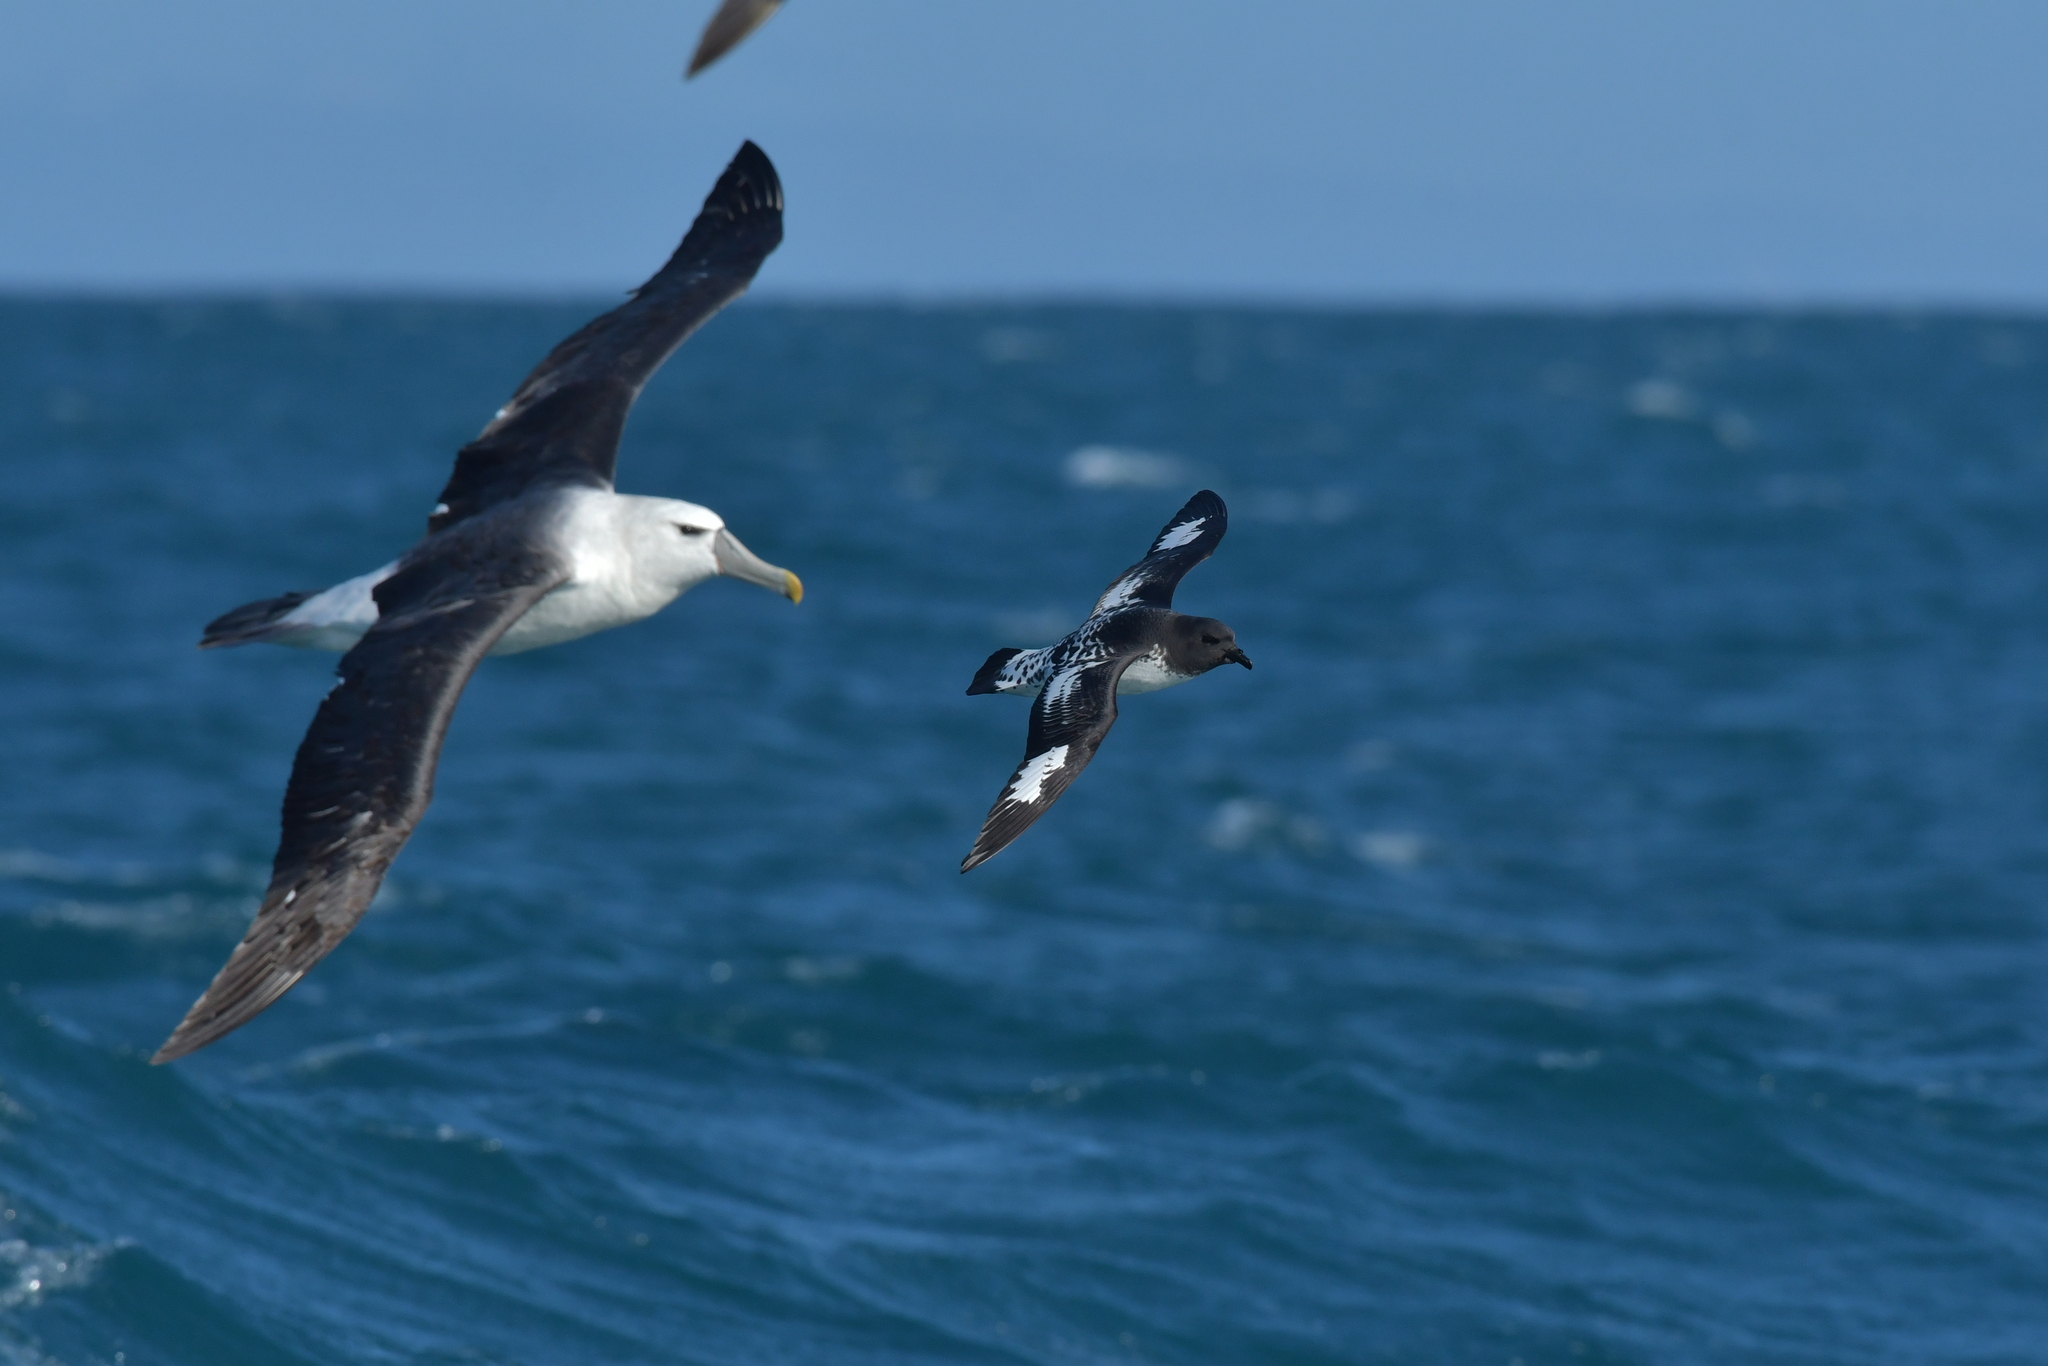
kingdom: Animalia
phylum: Chordata
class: Aves
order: Procellariiformes
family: Procellariidae
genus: Daption
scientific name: Daption capense
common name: Cape petrel
